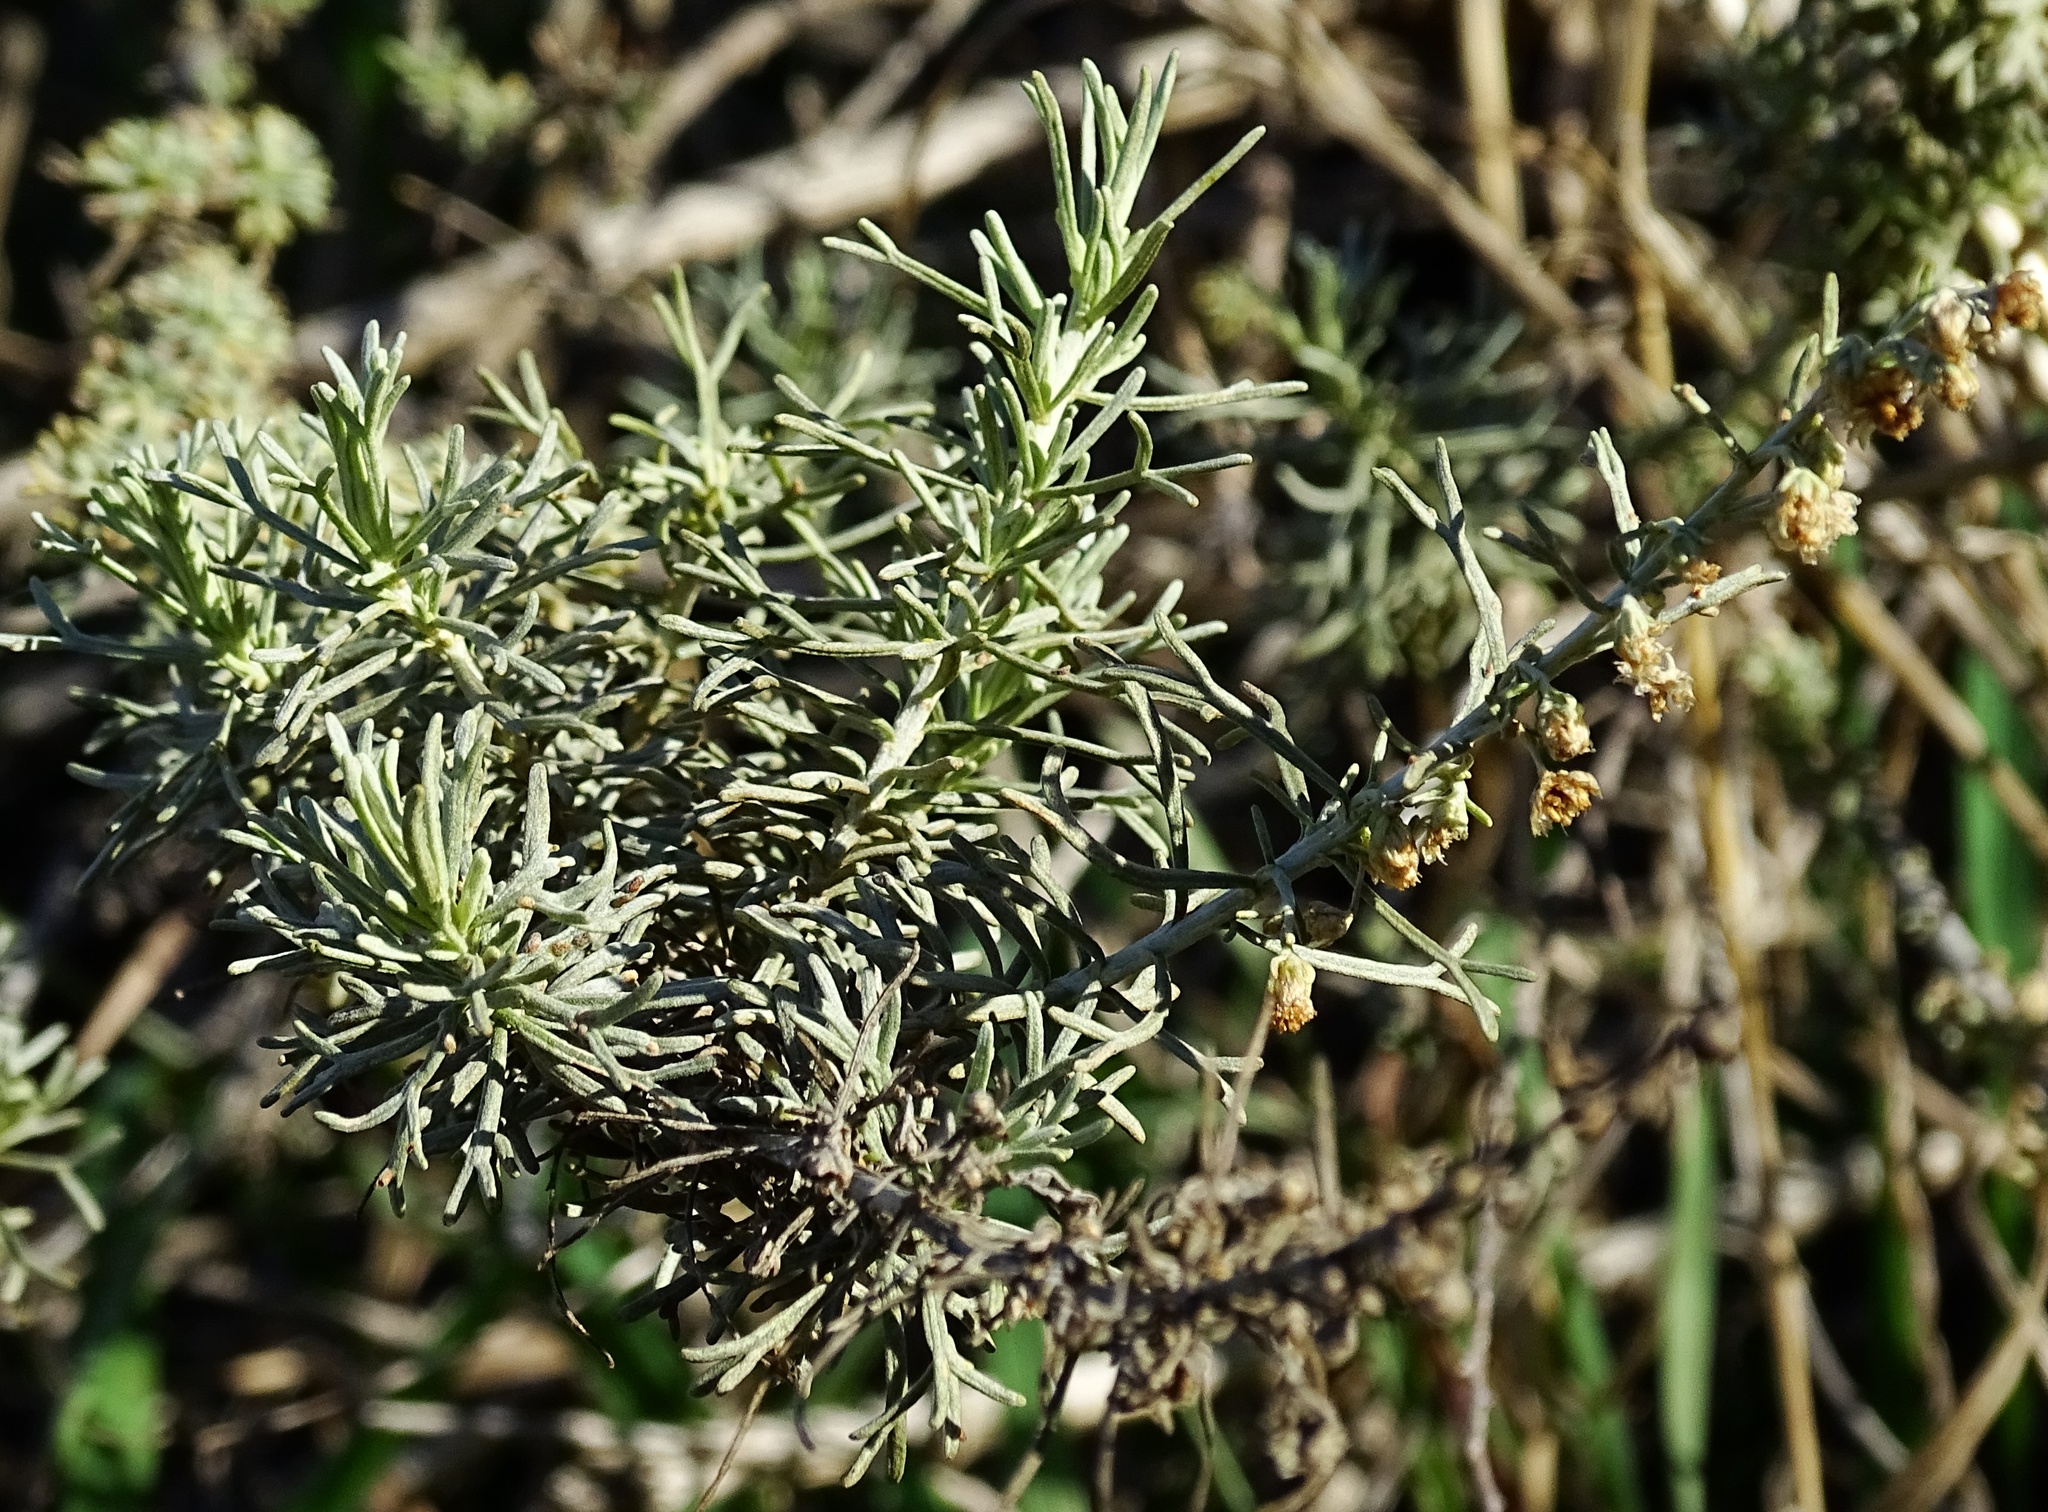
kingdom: Plantae
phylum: Tracheophyta
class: Magnoliopsida
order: Asterales
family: Asteraceae
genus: Artemisia
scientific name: Artemisia californica
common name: California sagebrush
